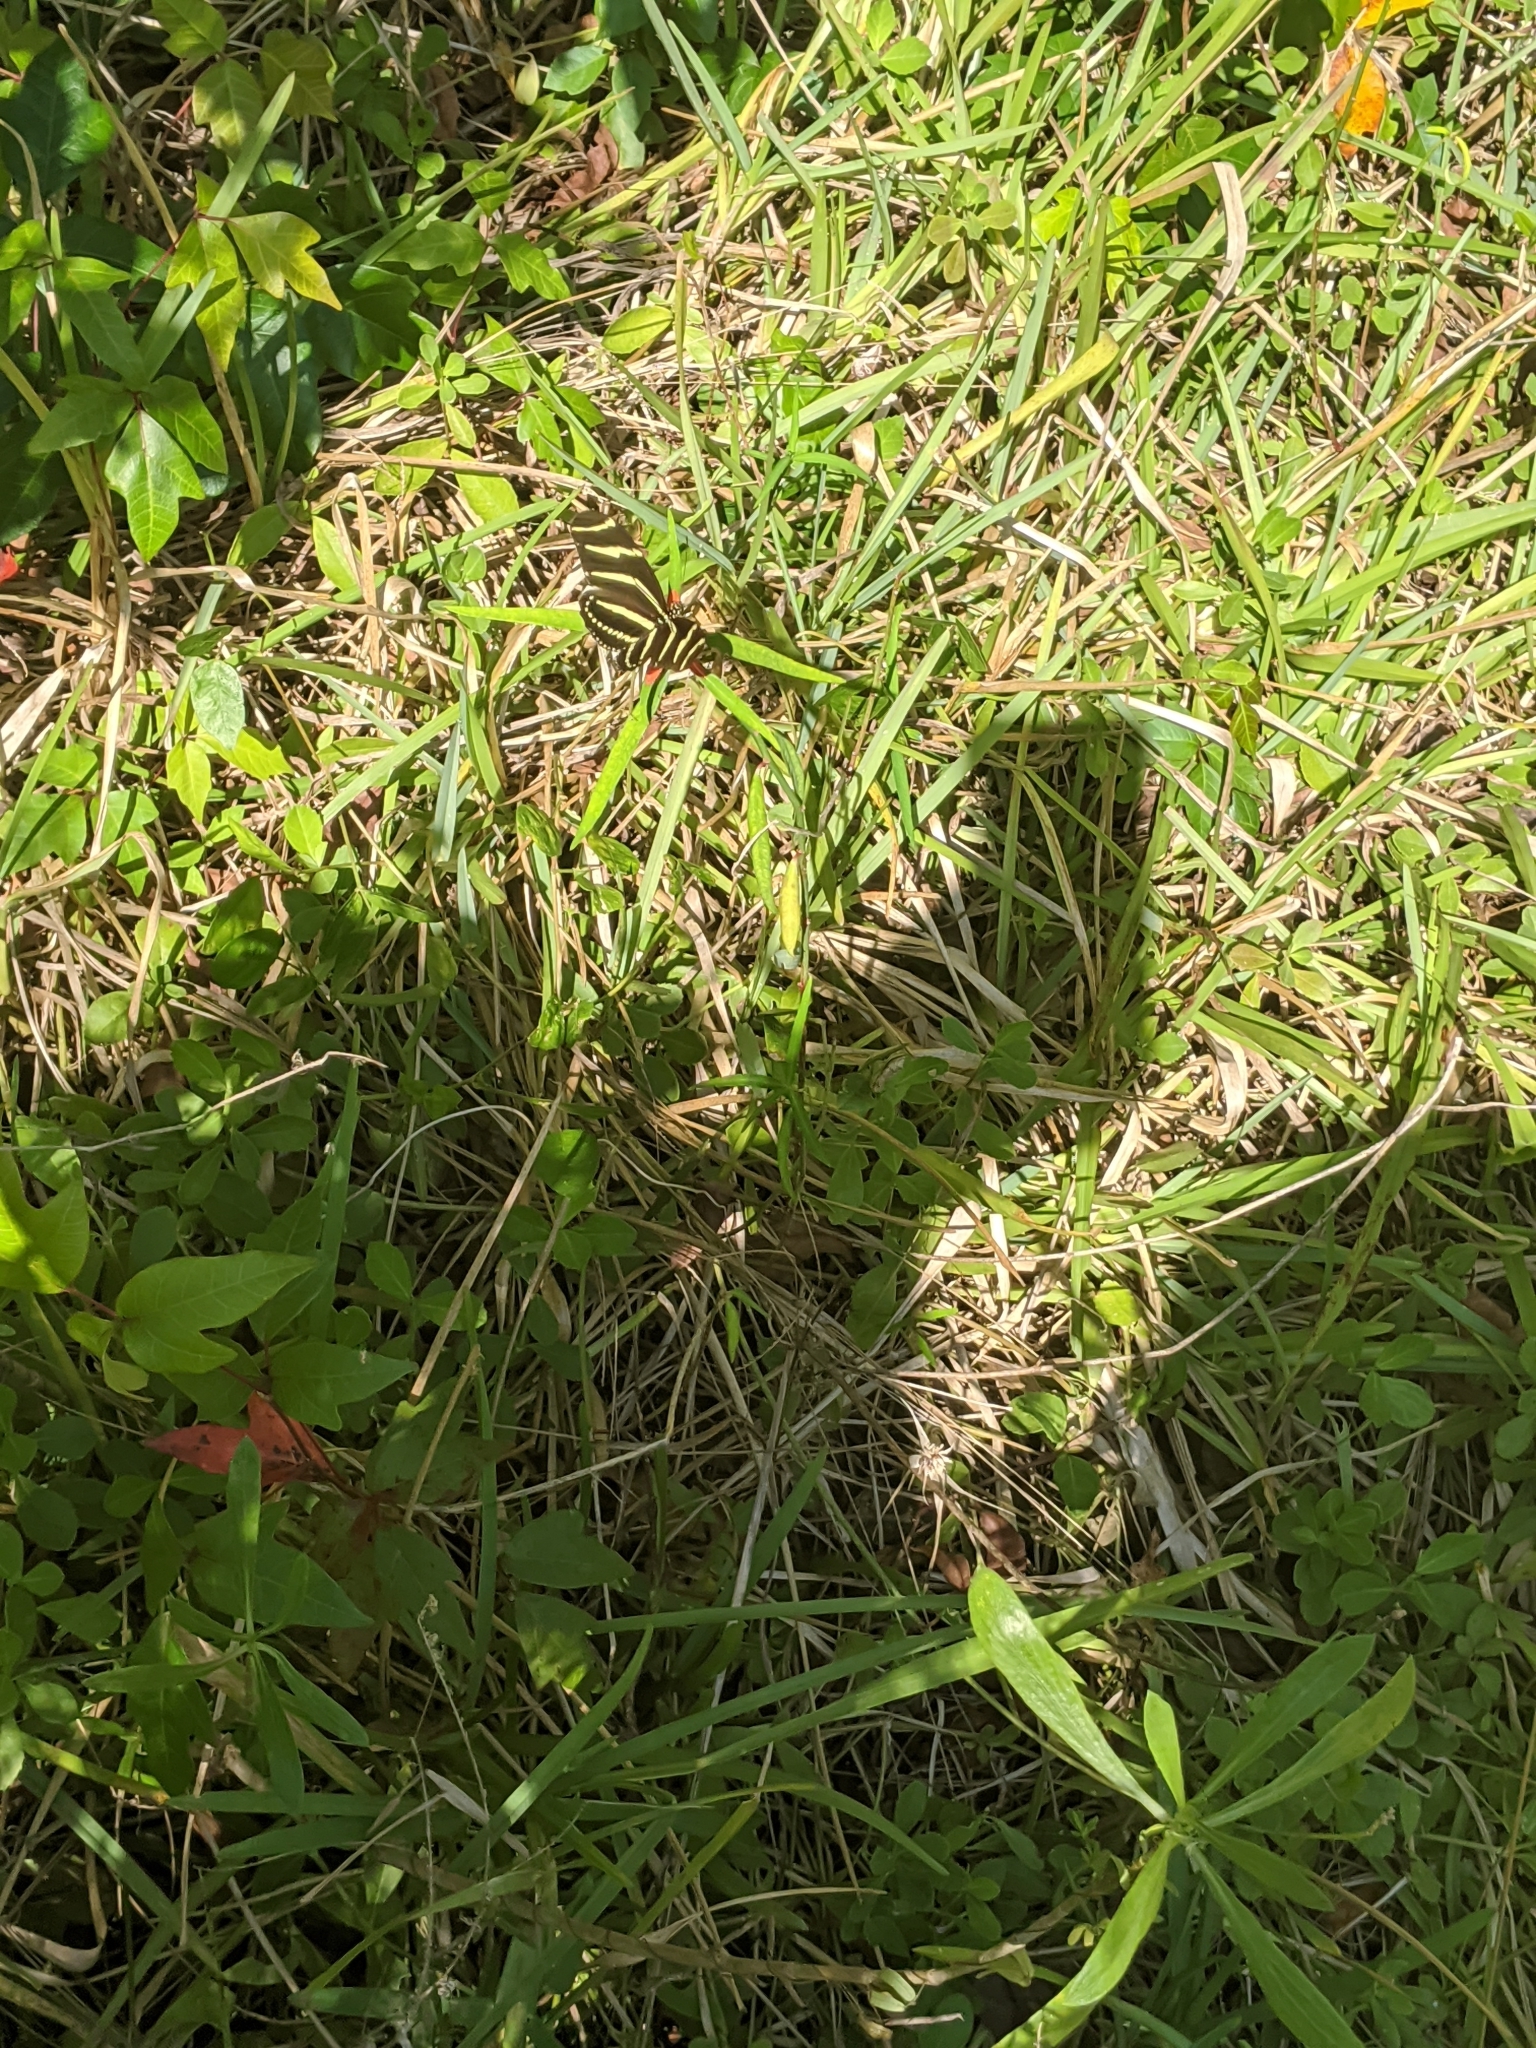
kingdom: Animalia
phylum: Arthropoda
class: Insecta
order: Lepidoptera
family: Nymphalidae
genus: Heliconius
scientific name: Heliconius charithonia
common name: Zebra long wing
